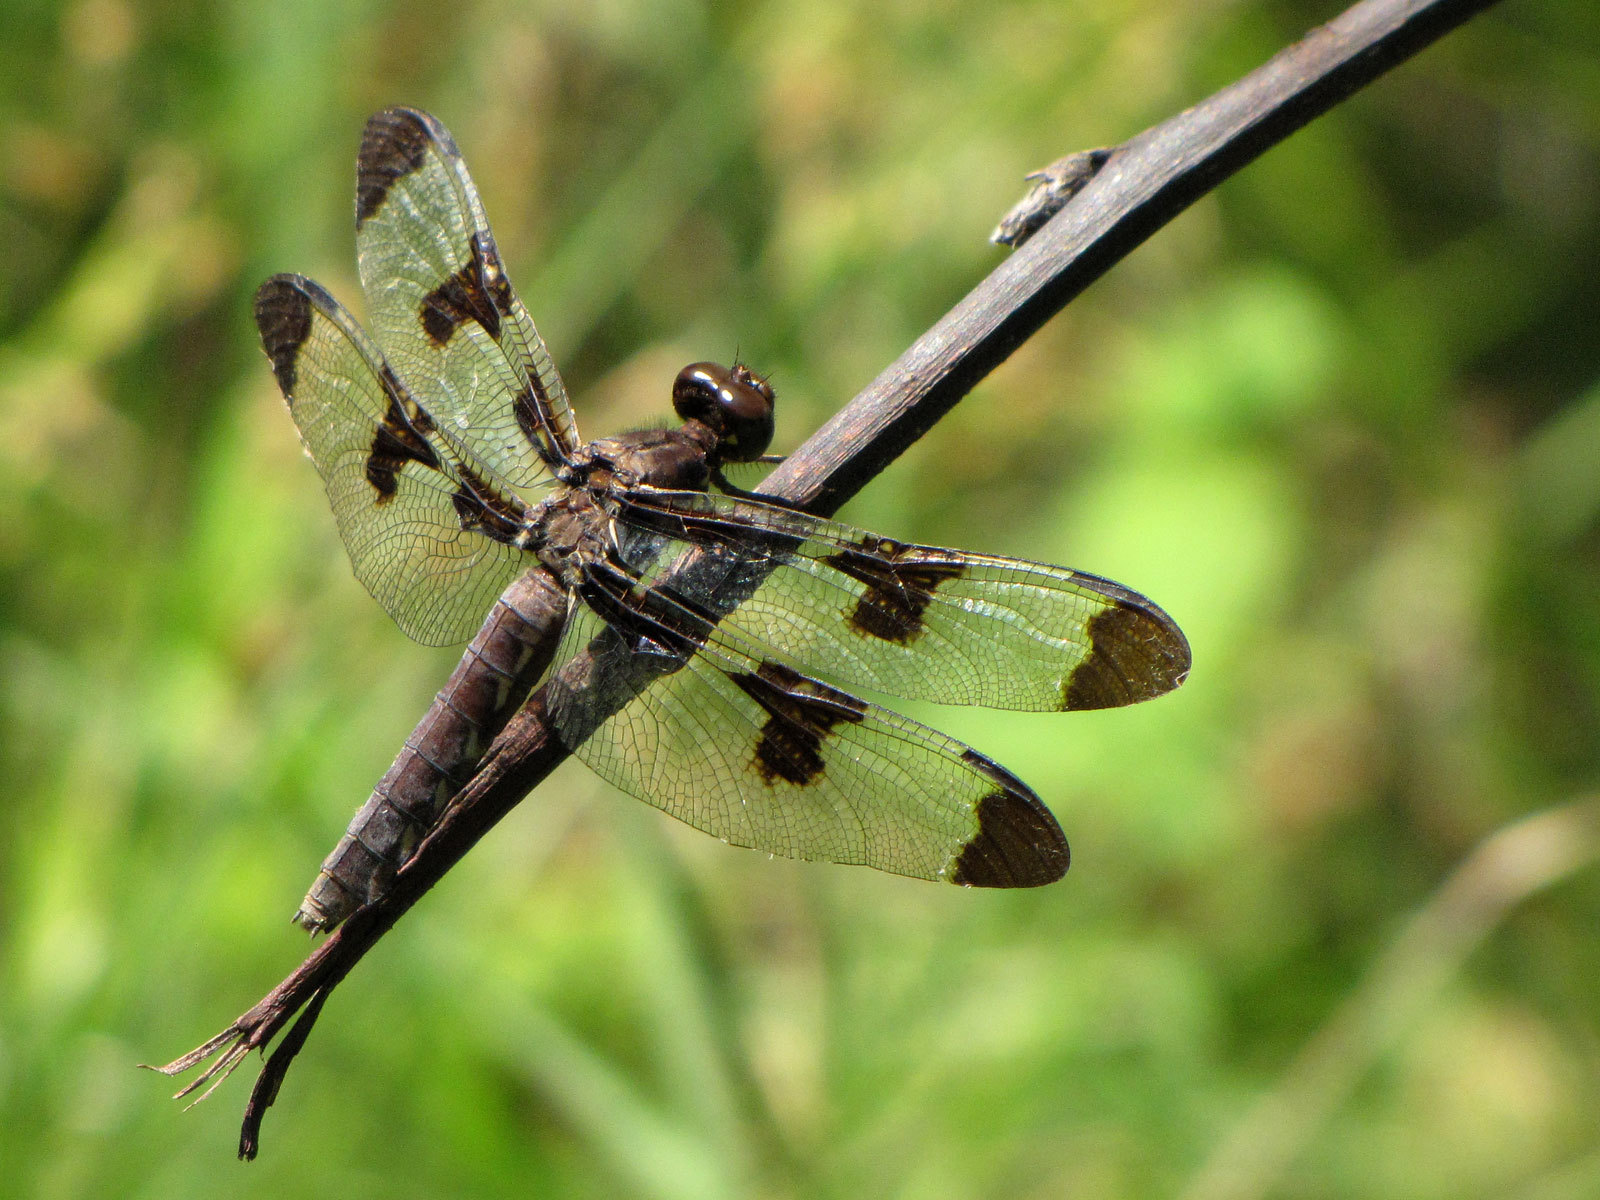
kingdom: Animalia
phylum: Arthropoda
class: Insecta
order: Odonata
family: Libellulidae
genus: Plathemis
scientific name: Plathemis lydia
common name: Common whitetail
